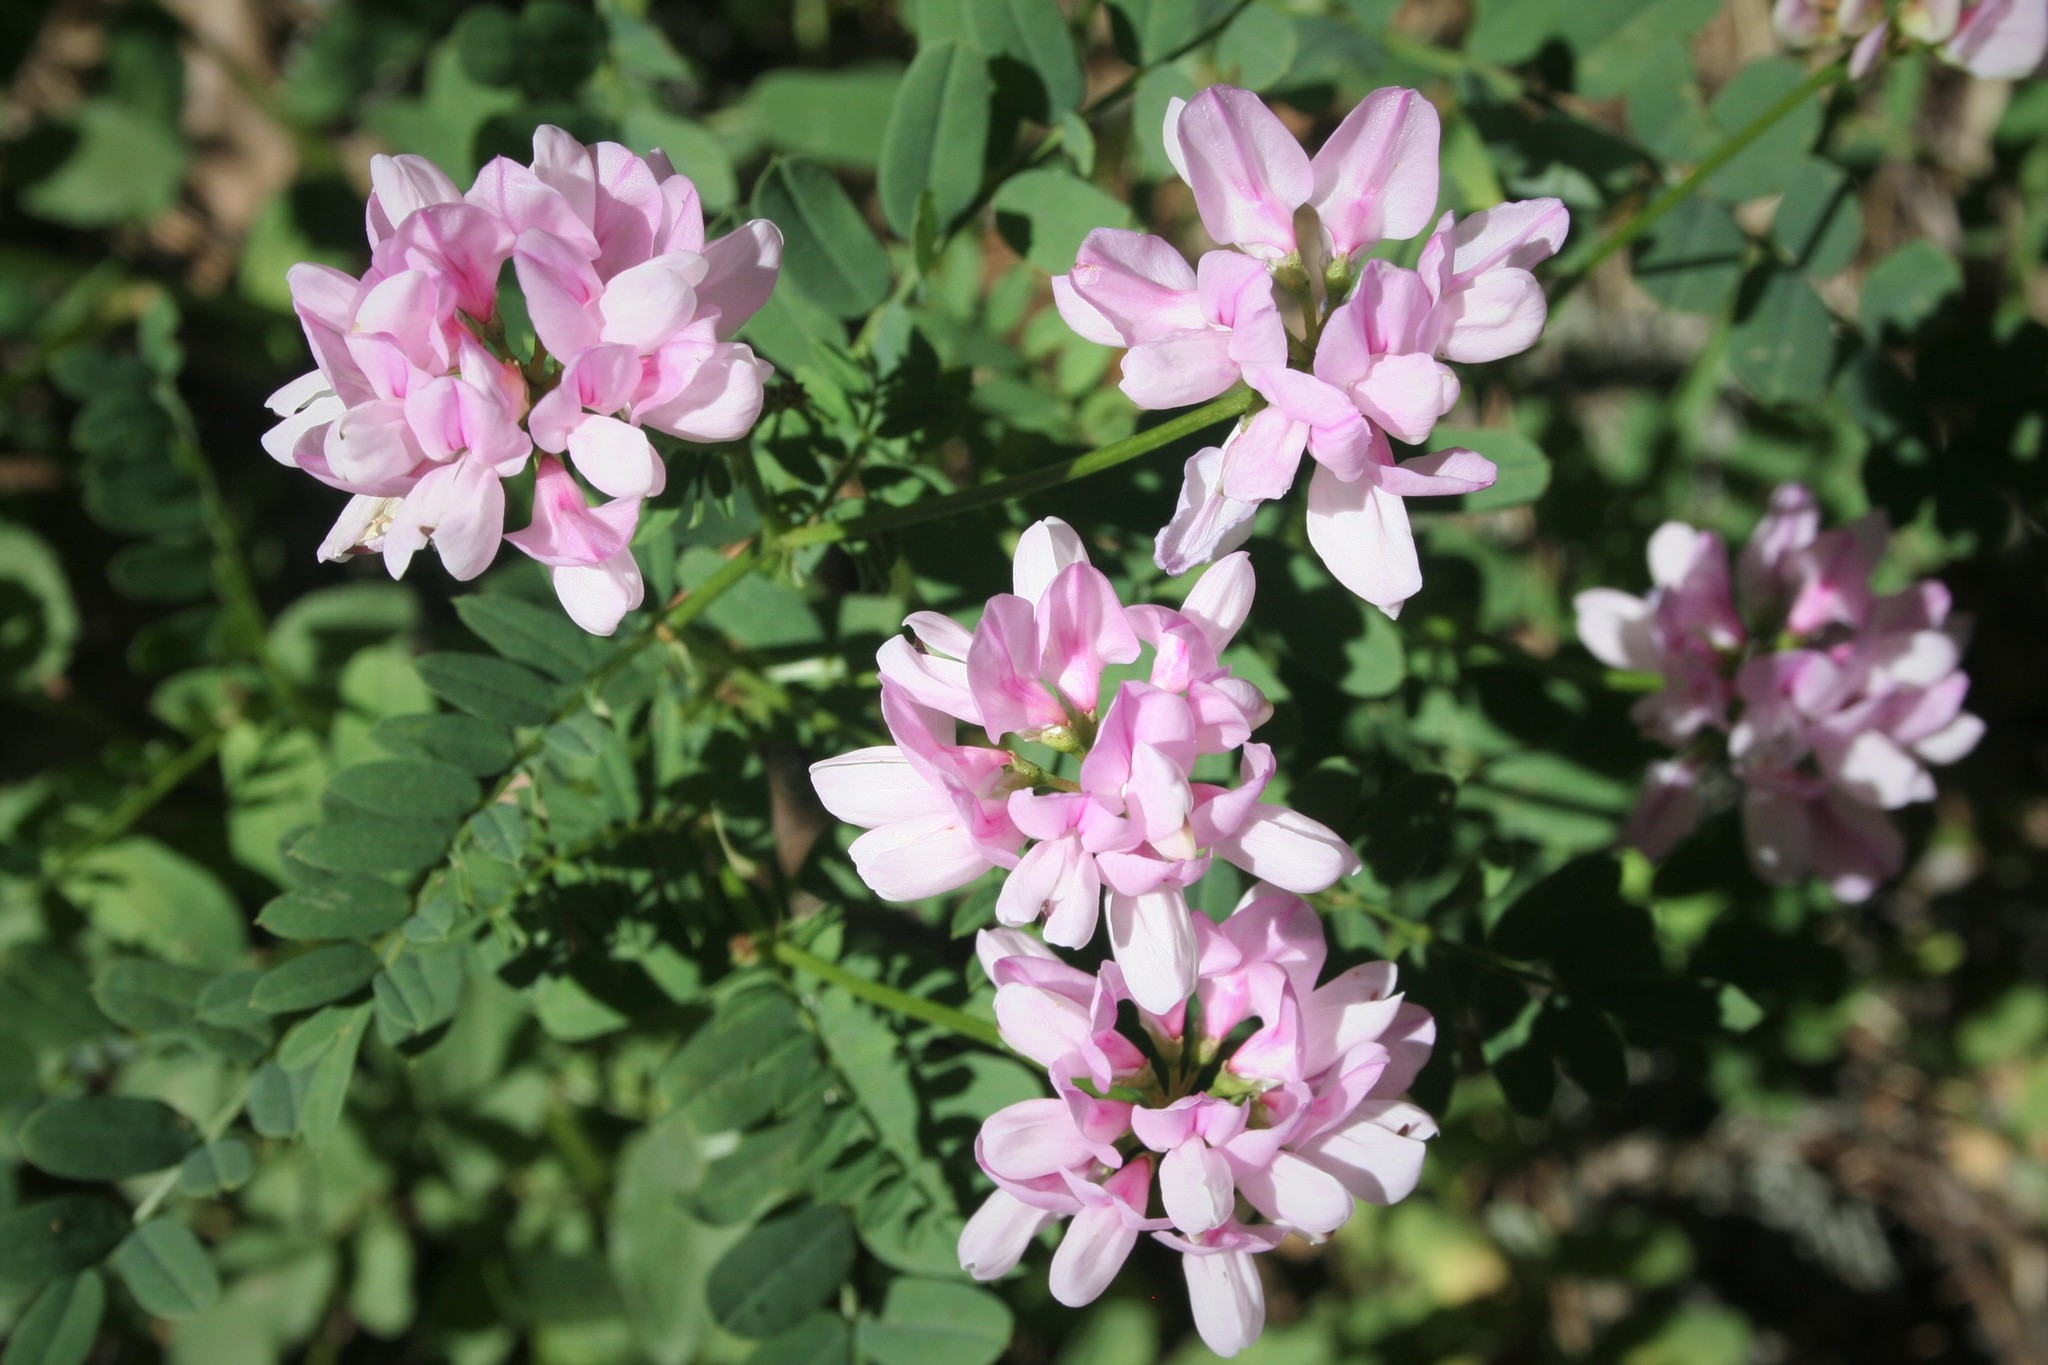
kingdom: Plantae
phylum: Tracheophyta
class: Magnoliopsida
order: Fabales
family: Fabaceae
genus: Coronilla
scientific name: Coronilla varia
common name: Crownvetch
